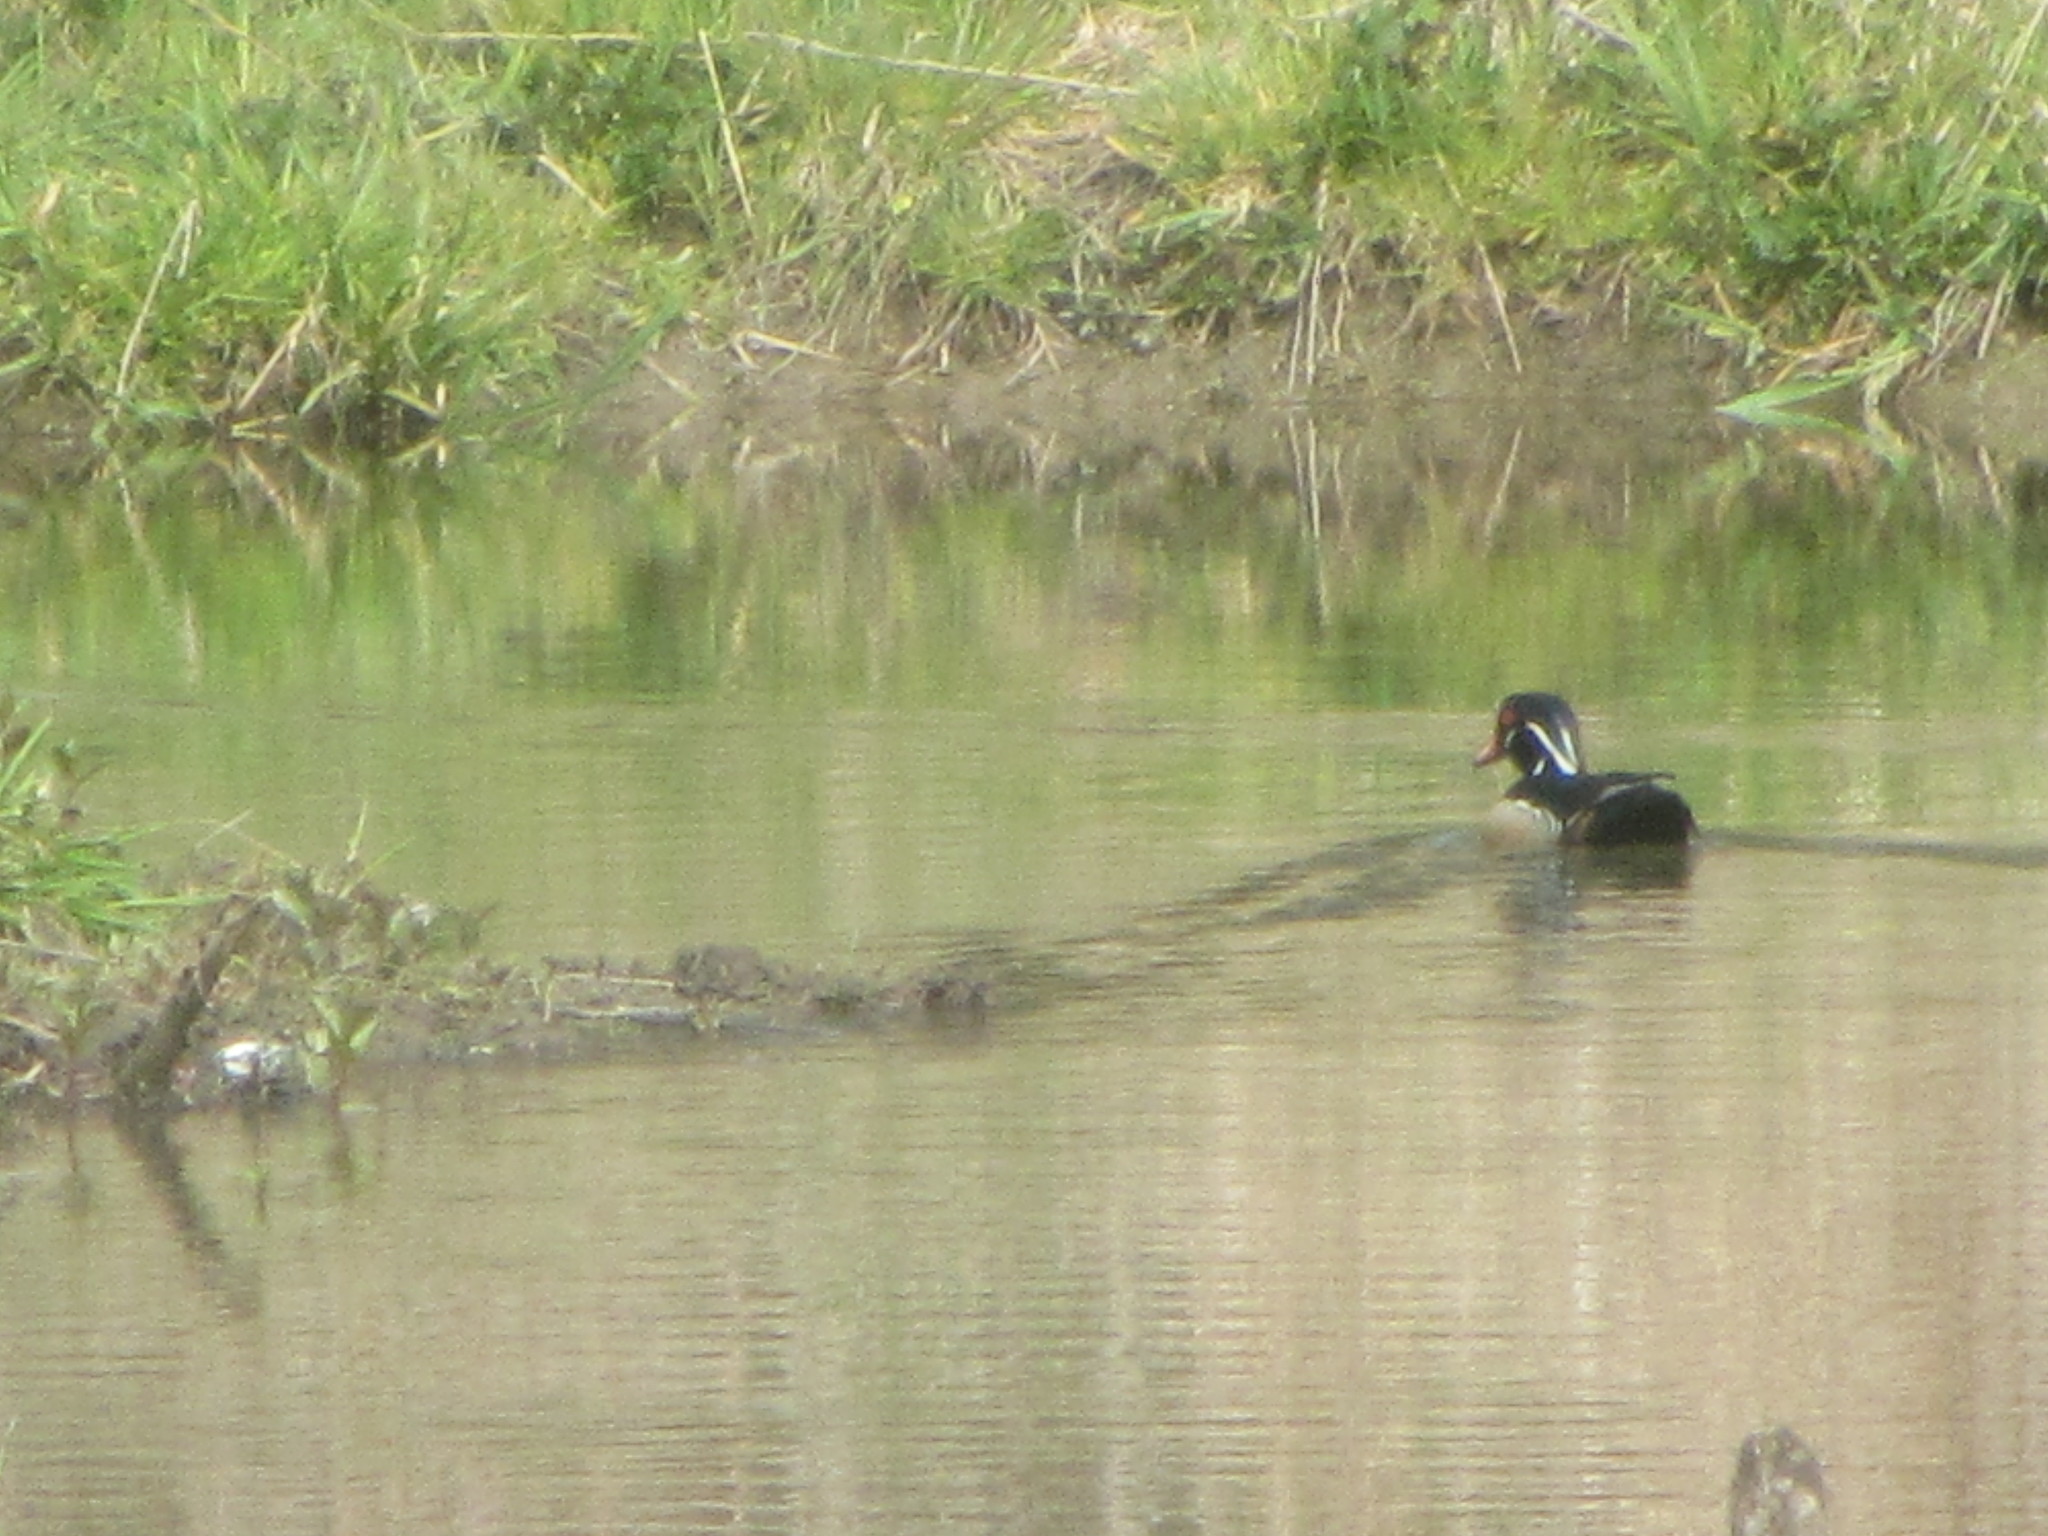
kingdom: Animalia
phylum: Chordata
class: Aves
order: Anseriformes
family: Anatidae
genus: Aix
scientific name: Aix sponsa
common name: Wood duck
